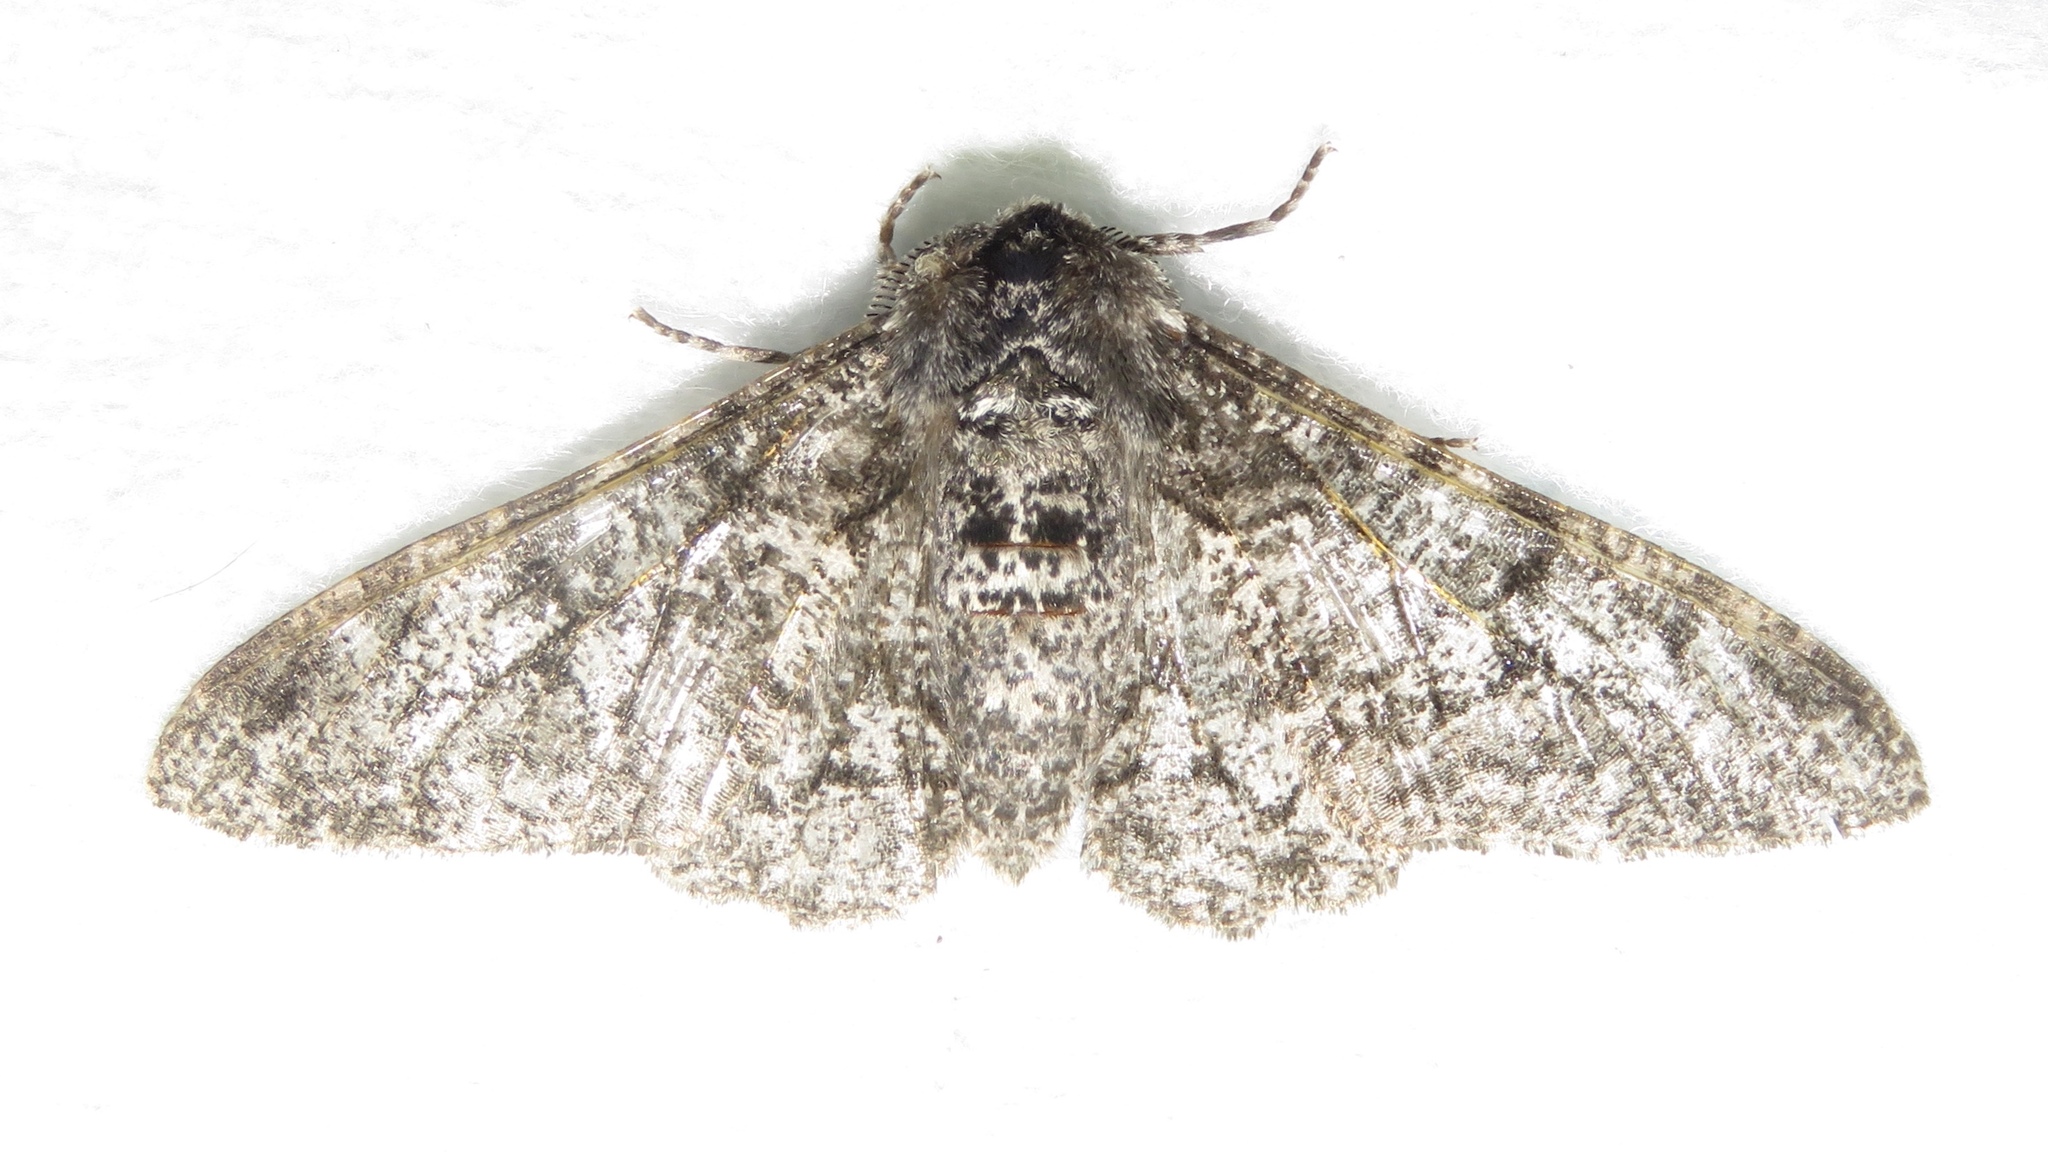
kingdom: Animalia
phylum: Arthropoda
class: Insecta
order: Lepidoptera
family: Geometridae
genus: Biston
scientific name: Biston betularia
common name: Peppered moth
